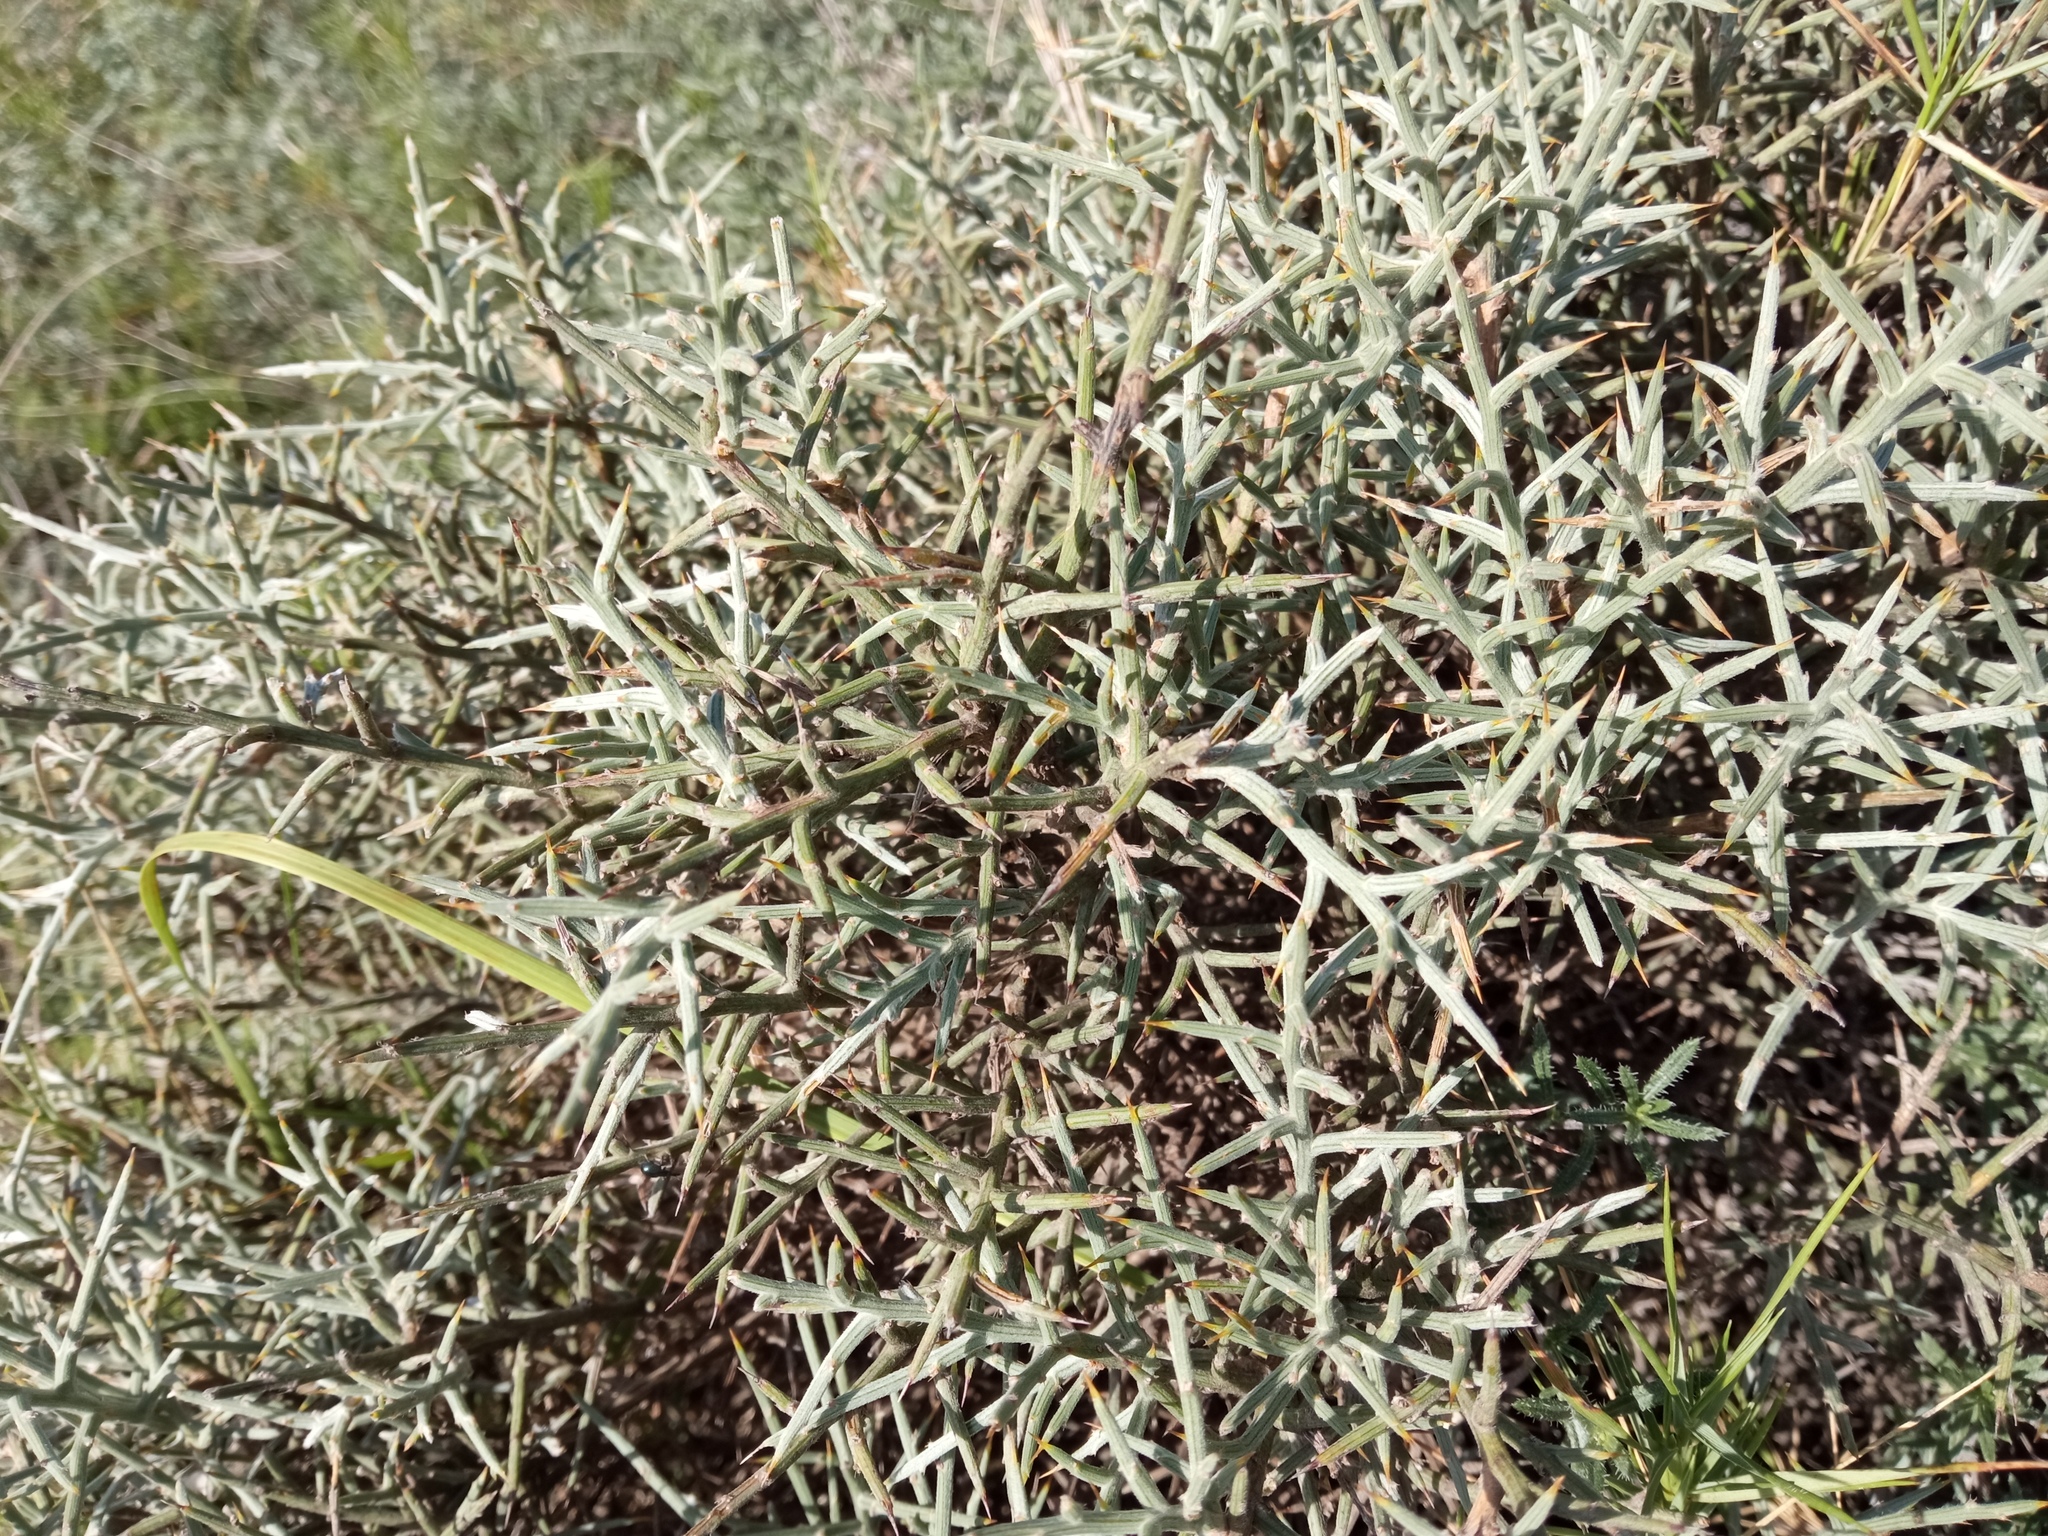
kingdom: Plantae
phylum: Tracheophyta
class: Magnoliopsida
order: Fabales
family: Fabaceae
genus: Genista
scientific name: Genista scorpius
